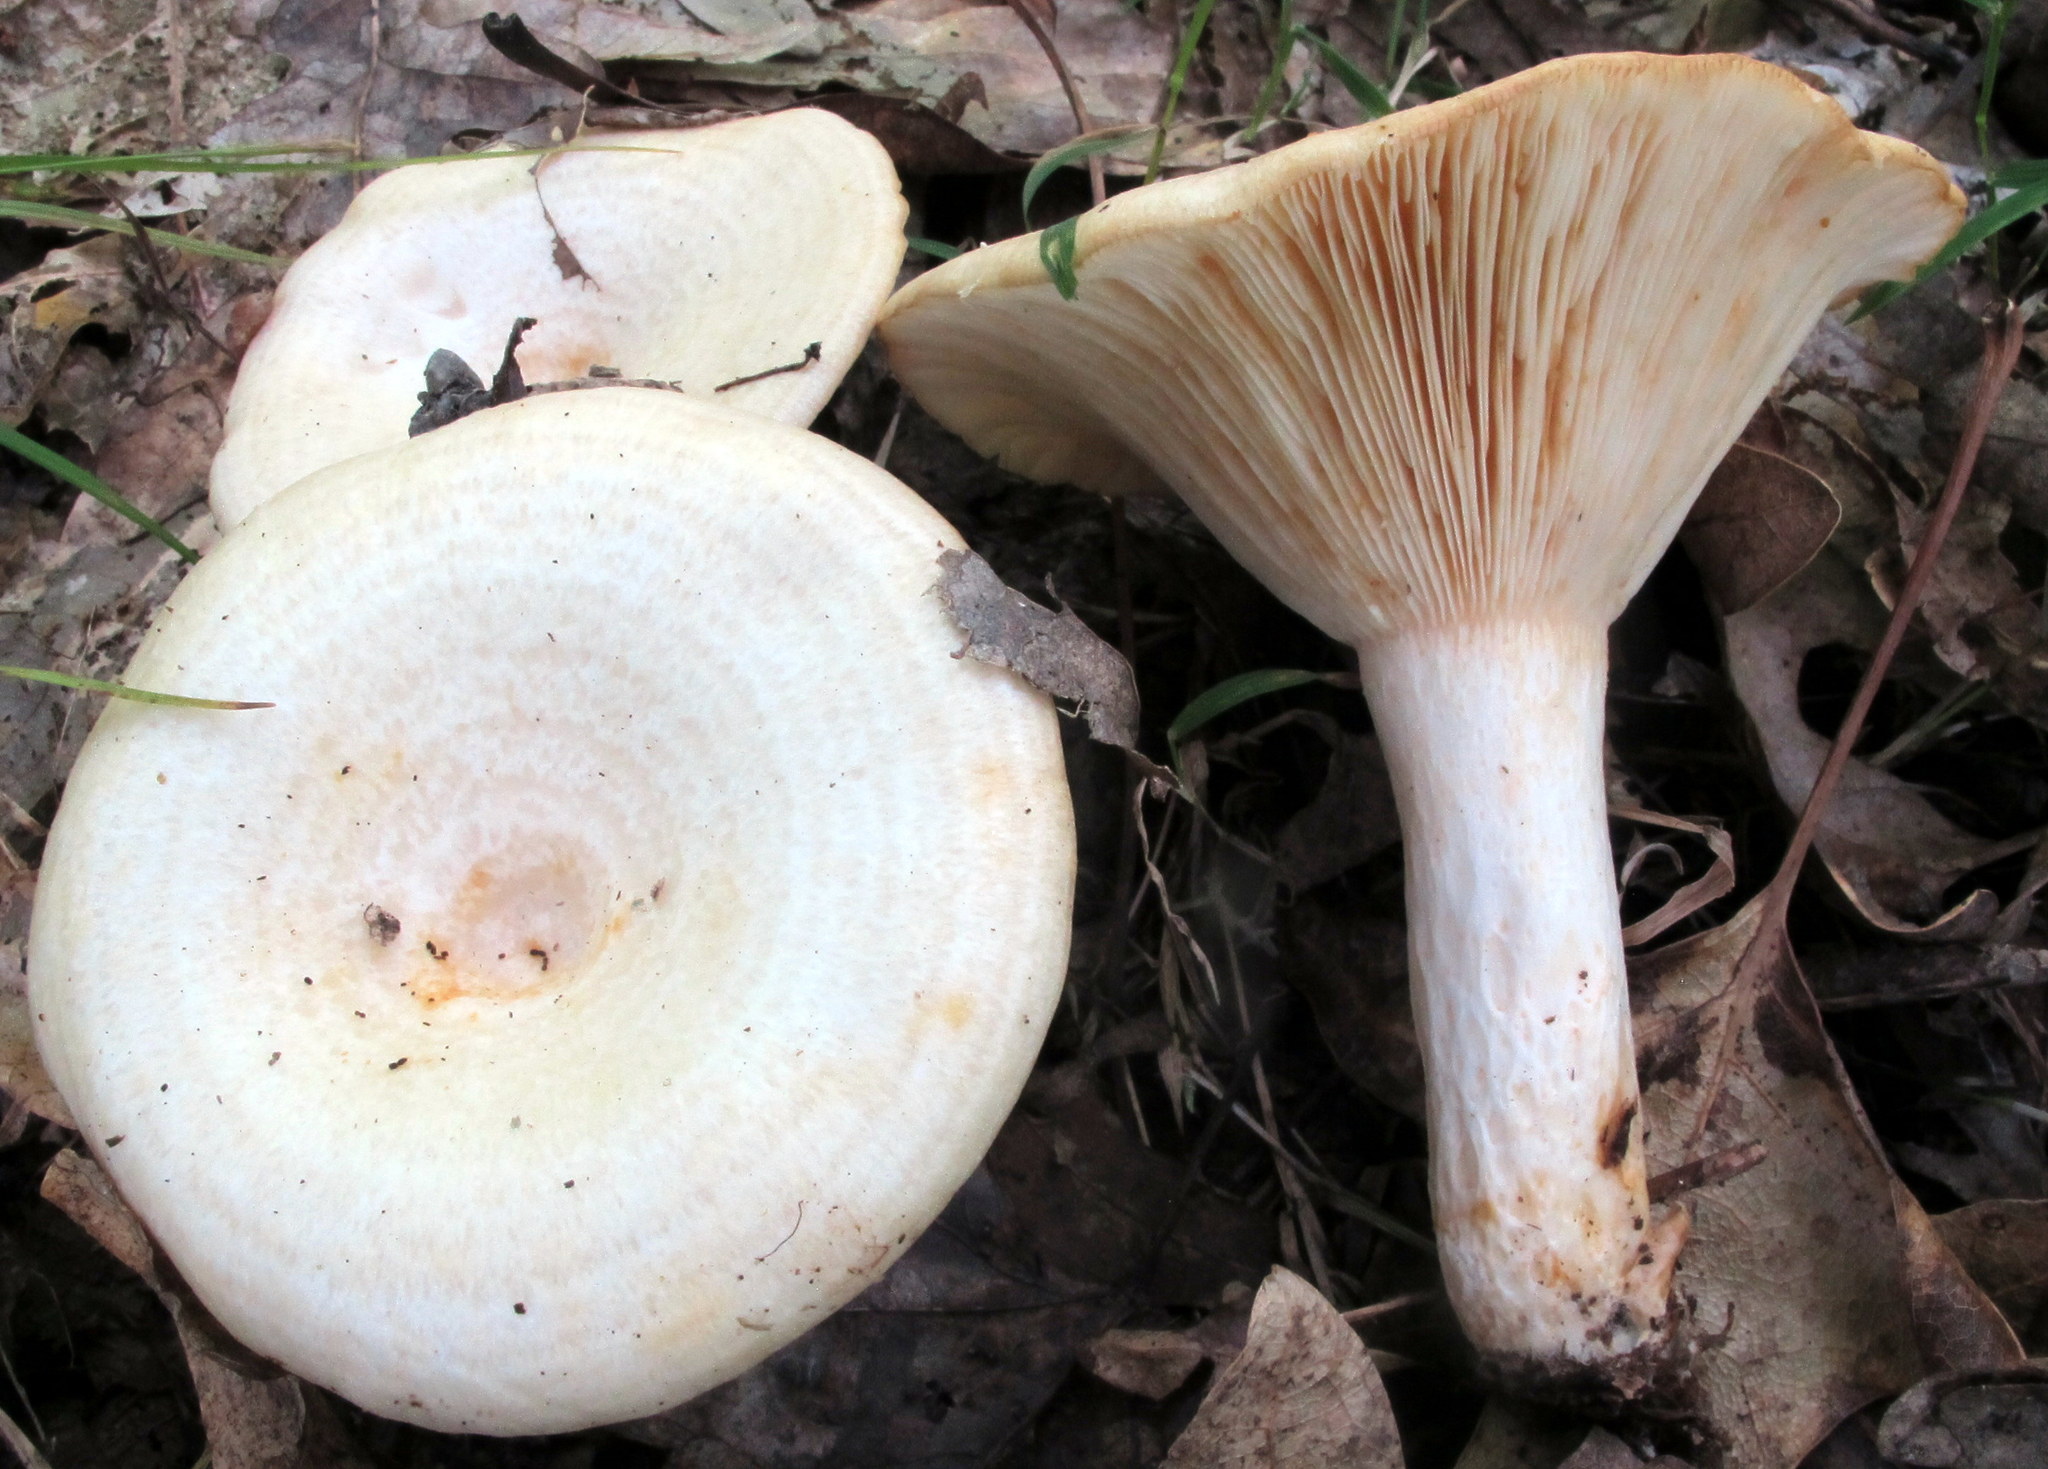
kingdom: Fungi
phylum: Basidiomycota
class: Agaricomycetes
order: Russulales
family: Russulaceae
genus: Lactarius
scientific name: Lactarius maculatipes
